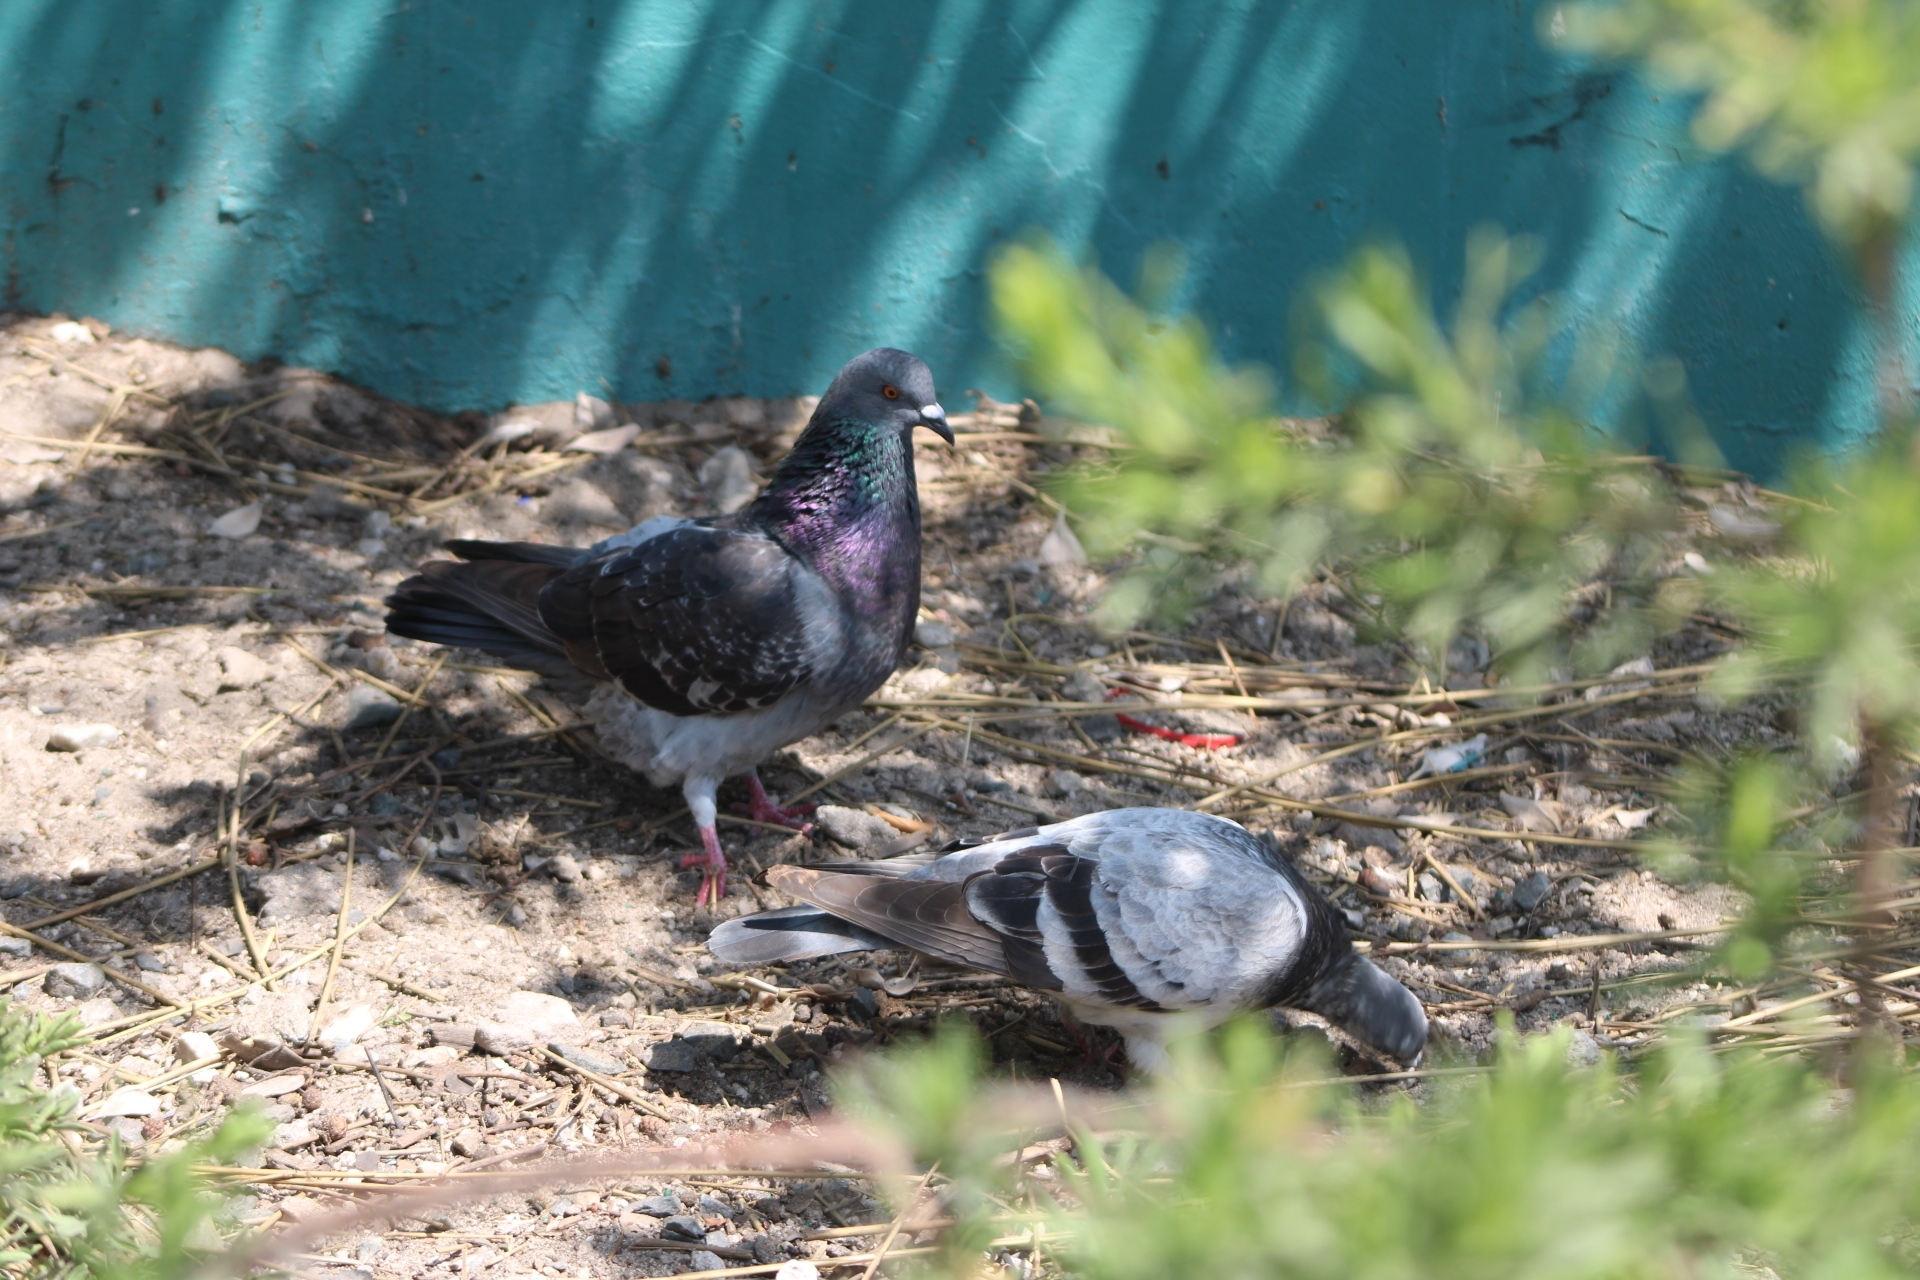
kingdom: Animalia
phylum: Chordata
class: Aves
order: Columbiformes
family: Columbidae
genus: Columba
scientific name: Columba livia
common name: Rock pigeon
